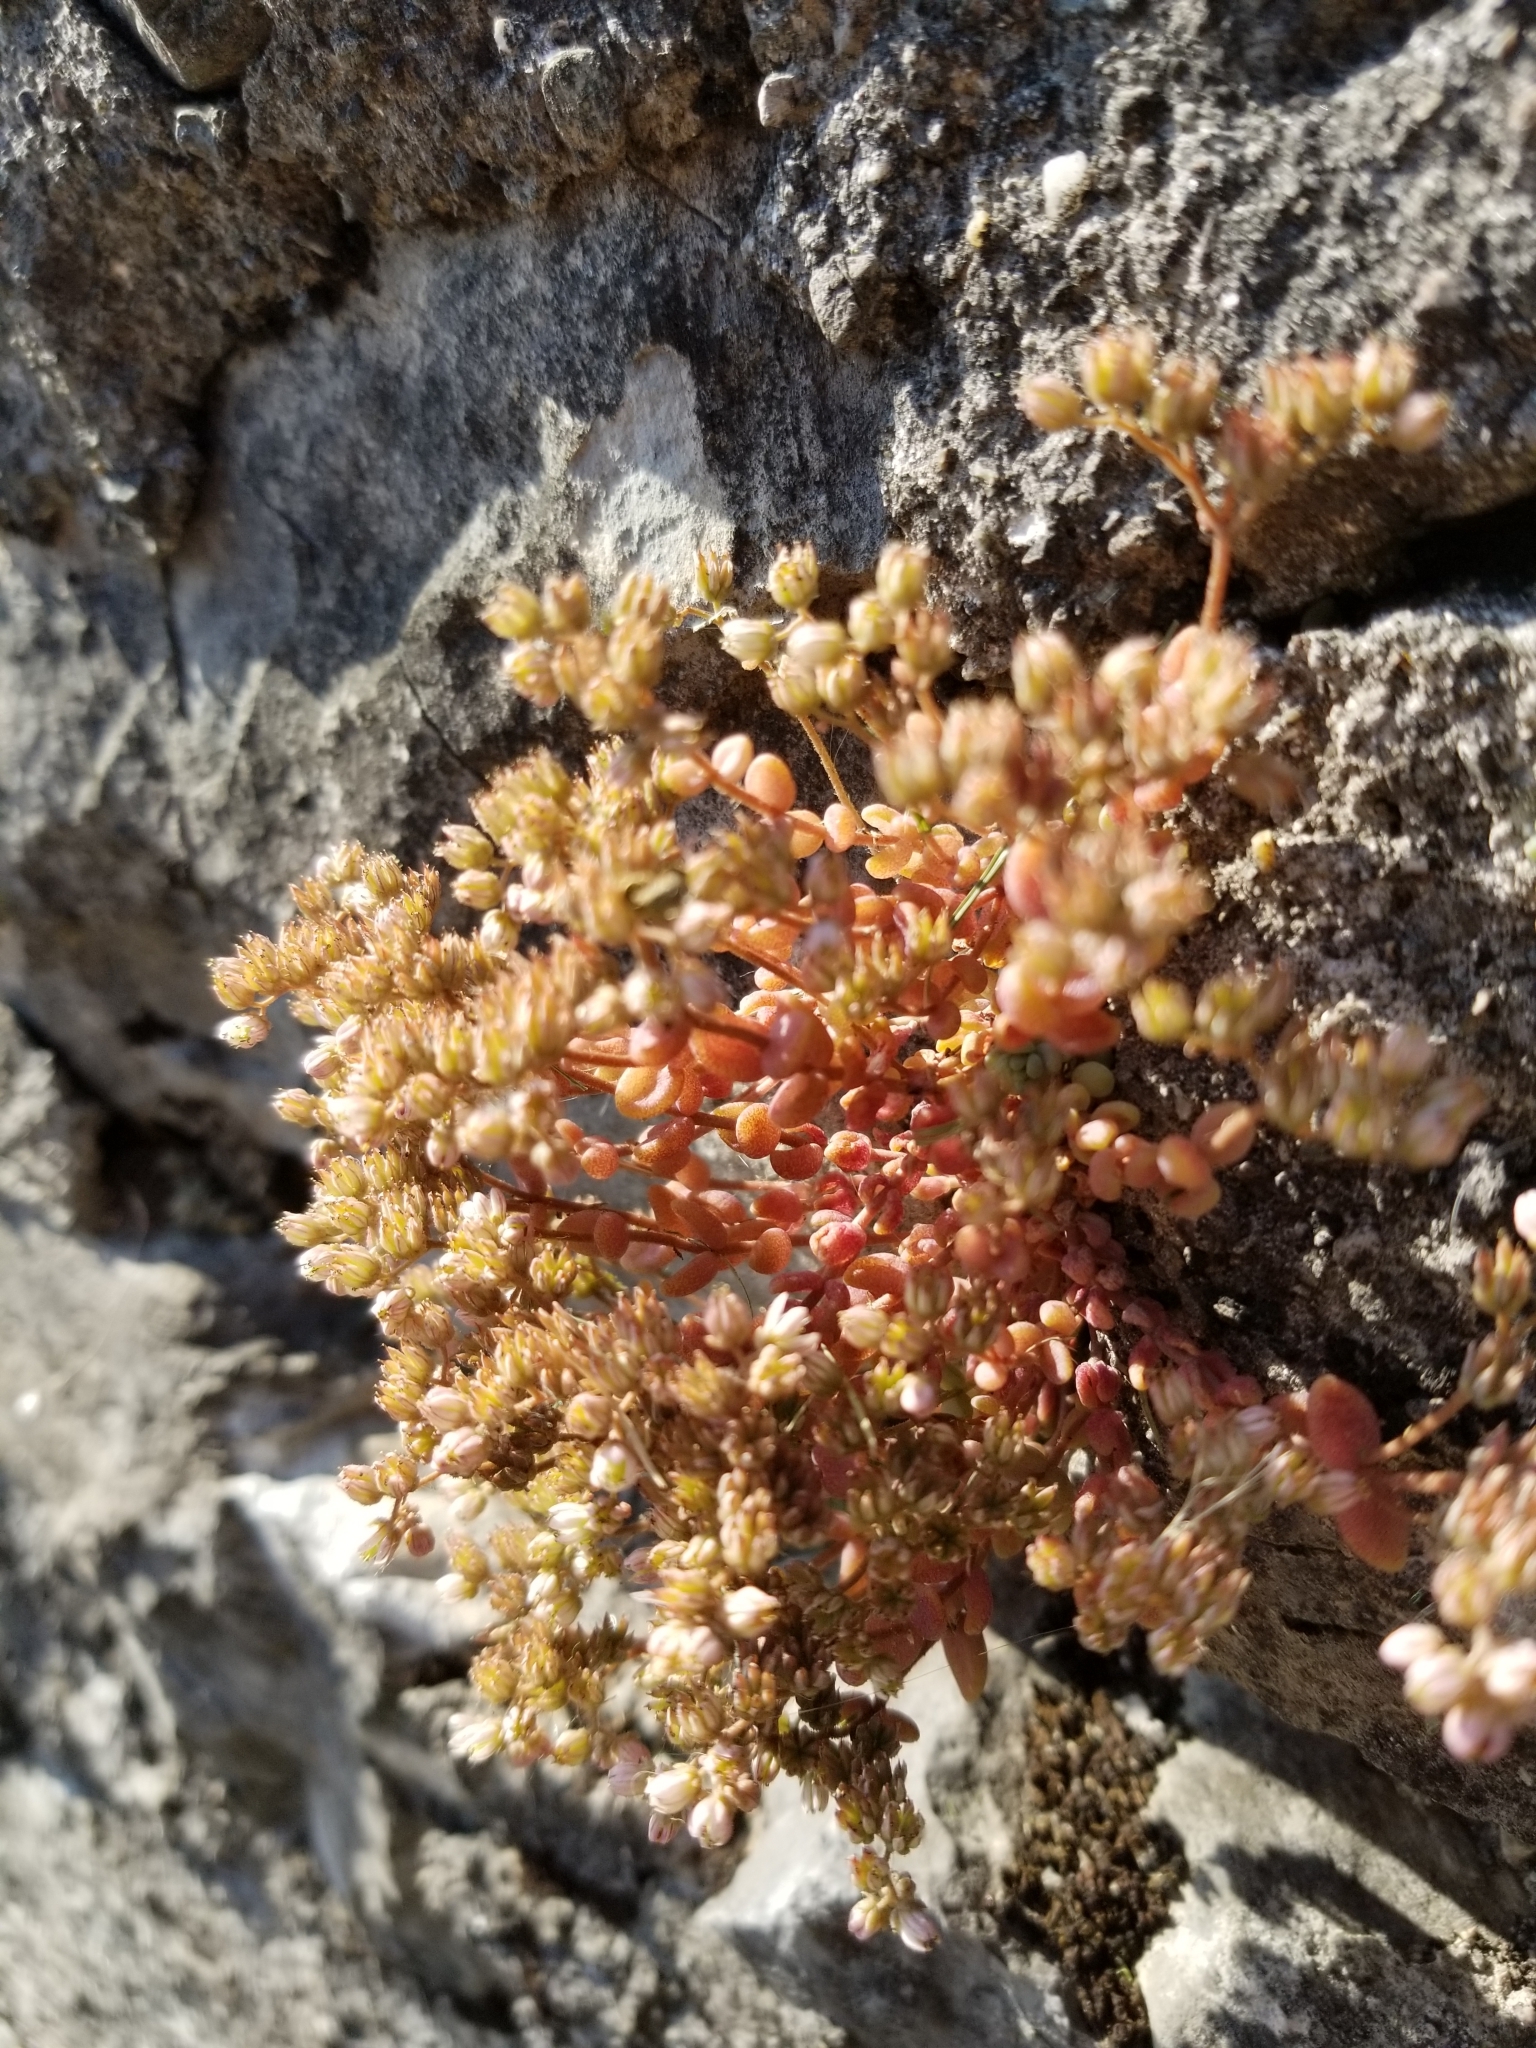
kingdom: Plantae
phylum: Tracheophyta
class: Magnoliopsida
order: Saxifragales
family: Crassulaceae
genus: Sedum
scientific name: Sedum dasyphyllum
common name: Thick-leaf stonecrop
